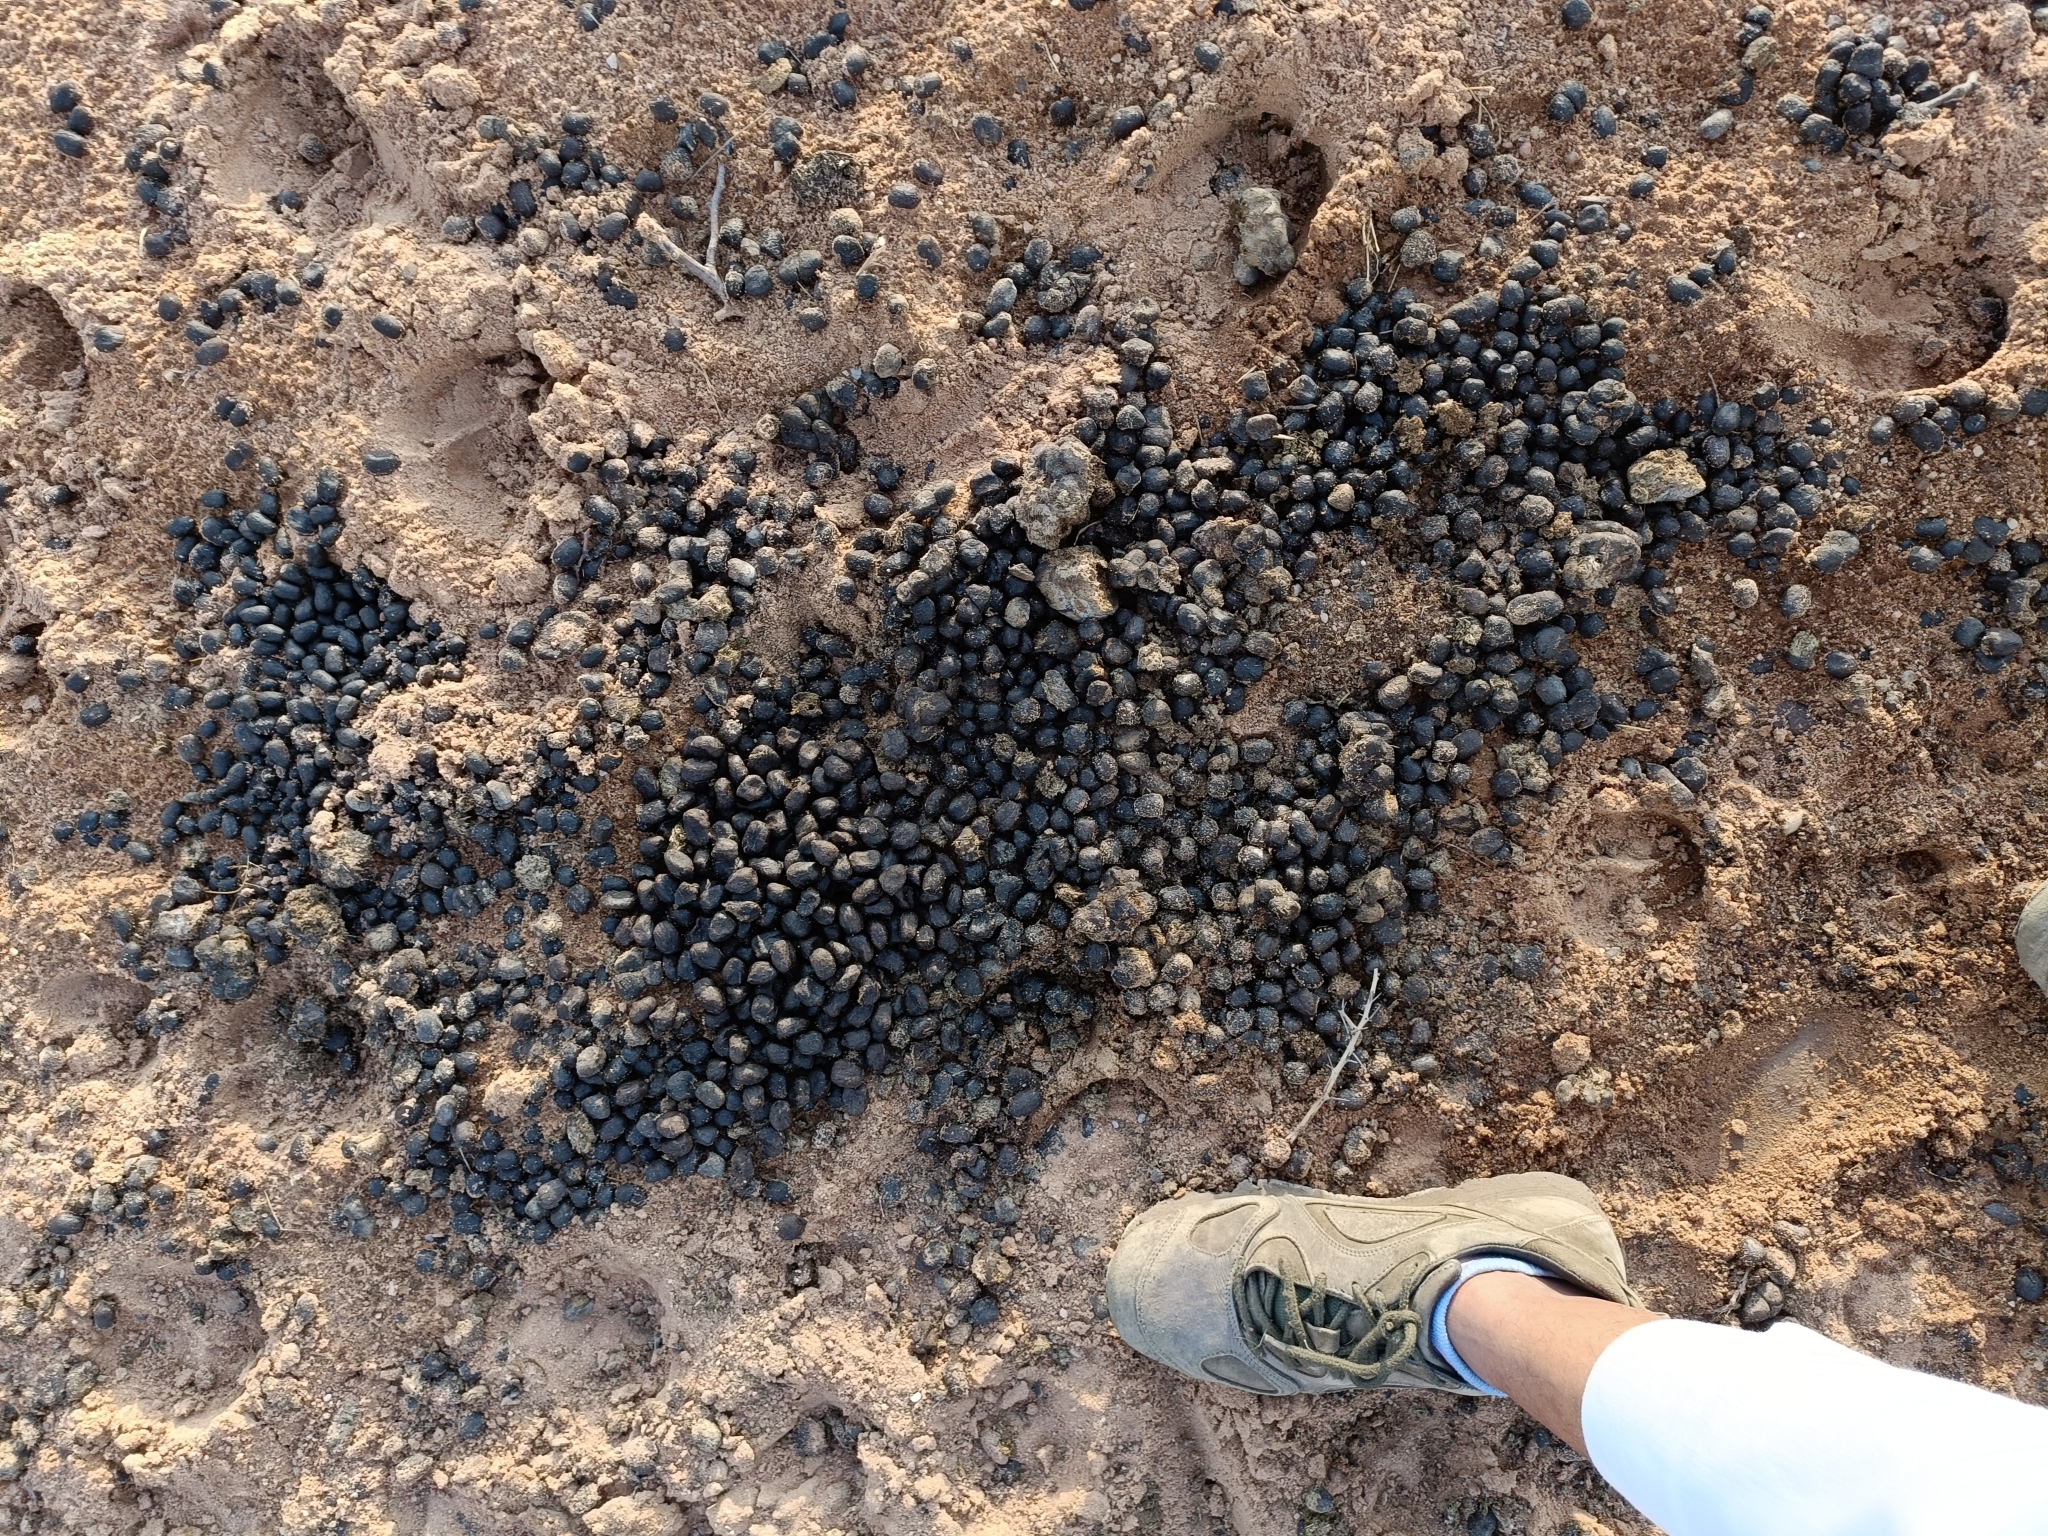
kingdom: Animalia
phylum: Chordata
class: Mammalia
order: Artiodactyla
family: Bovidae
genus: Boselaphus
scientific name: Boselaphus tragocamelus
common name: Nilgai
